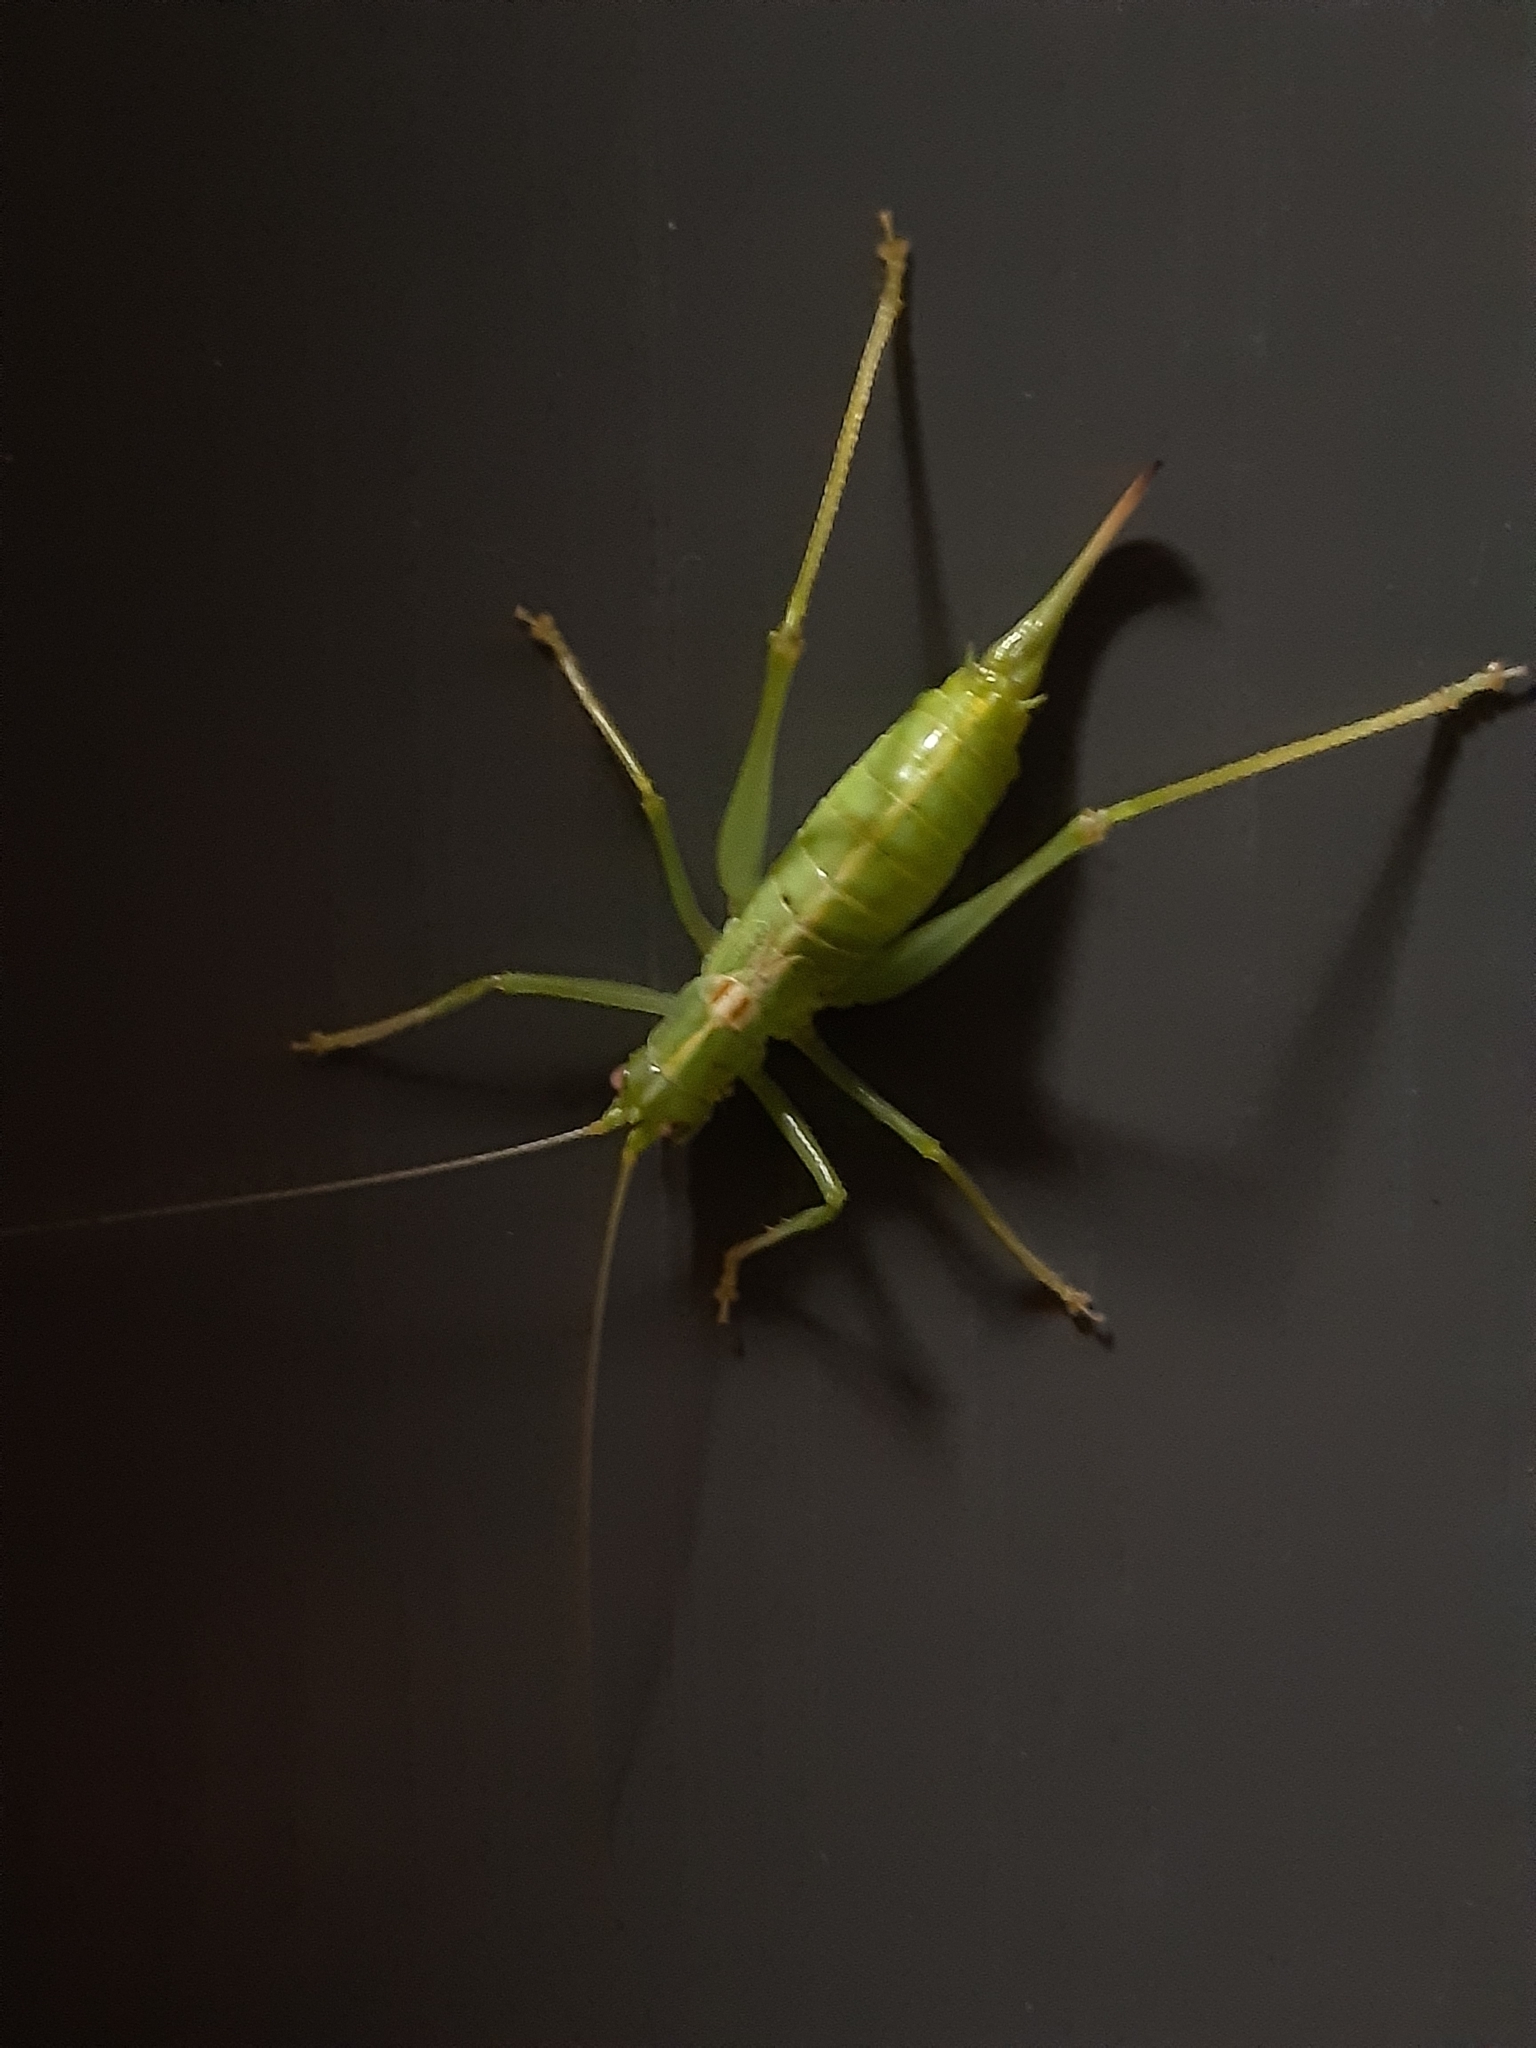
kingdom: Animalia
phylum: Arthropoda
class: Insecta
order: Orthoptera
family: Tettigoniidae
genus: Meconema
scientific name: Meconema meridionale
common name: Southern oak bush-cricket
